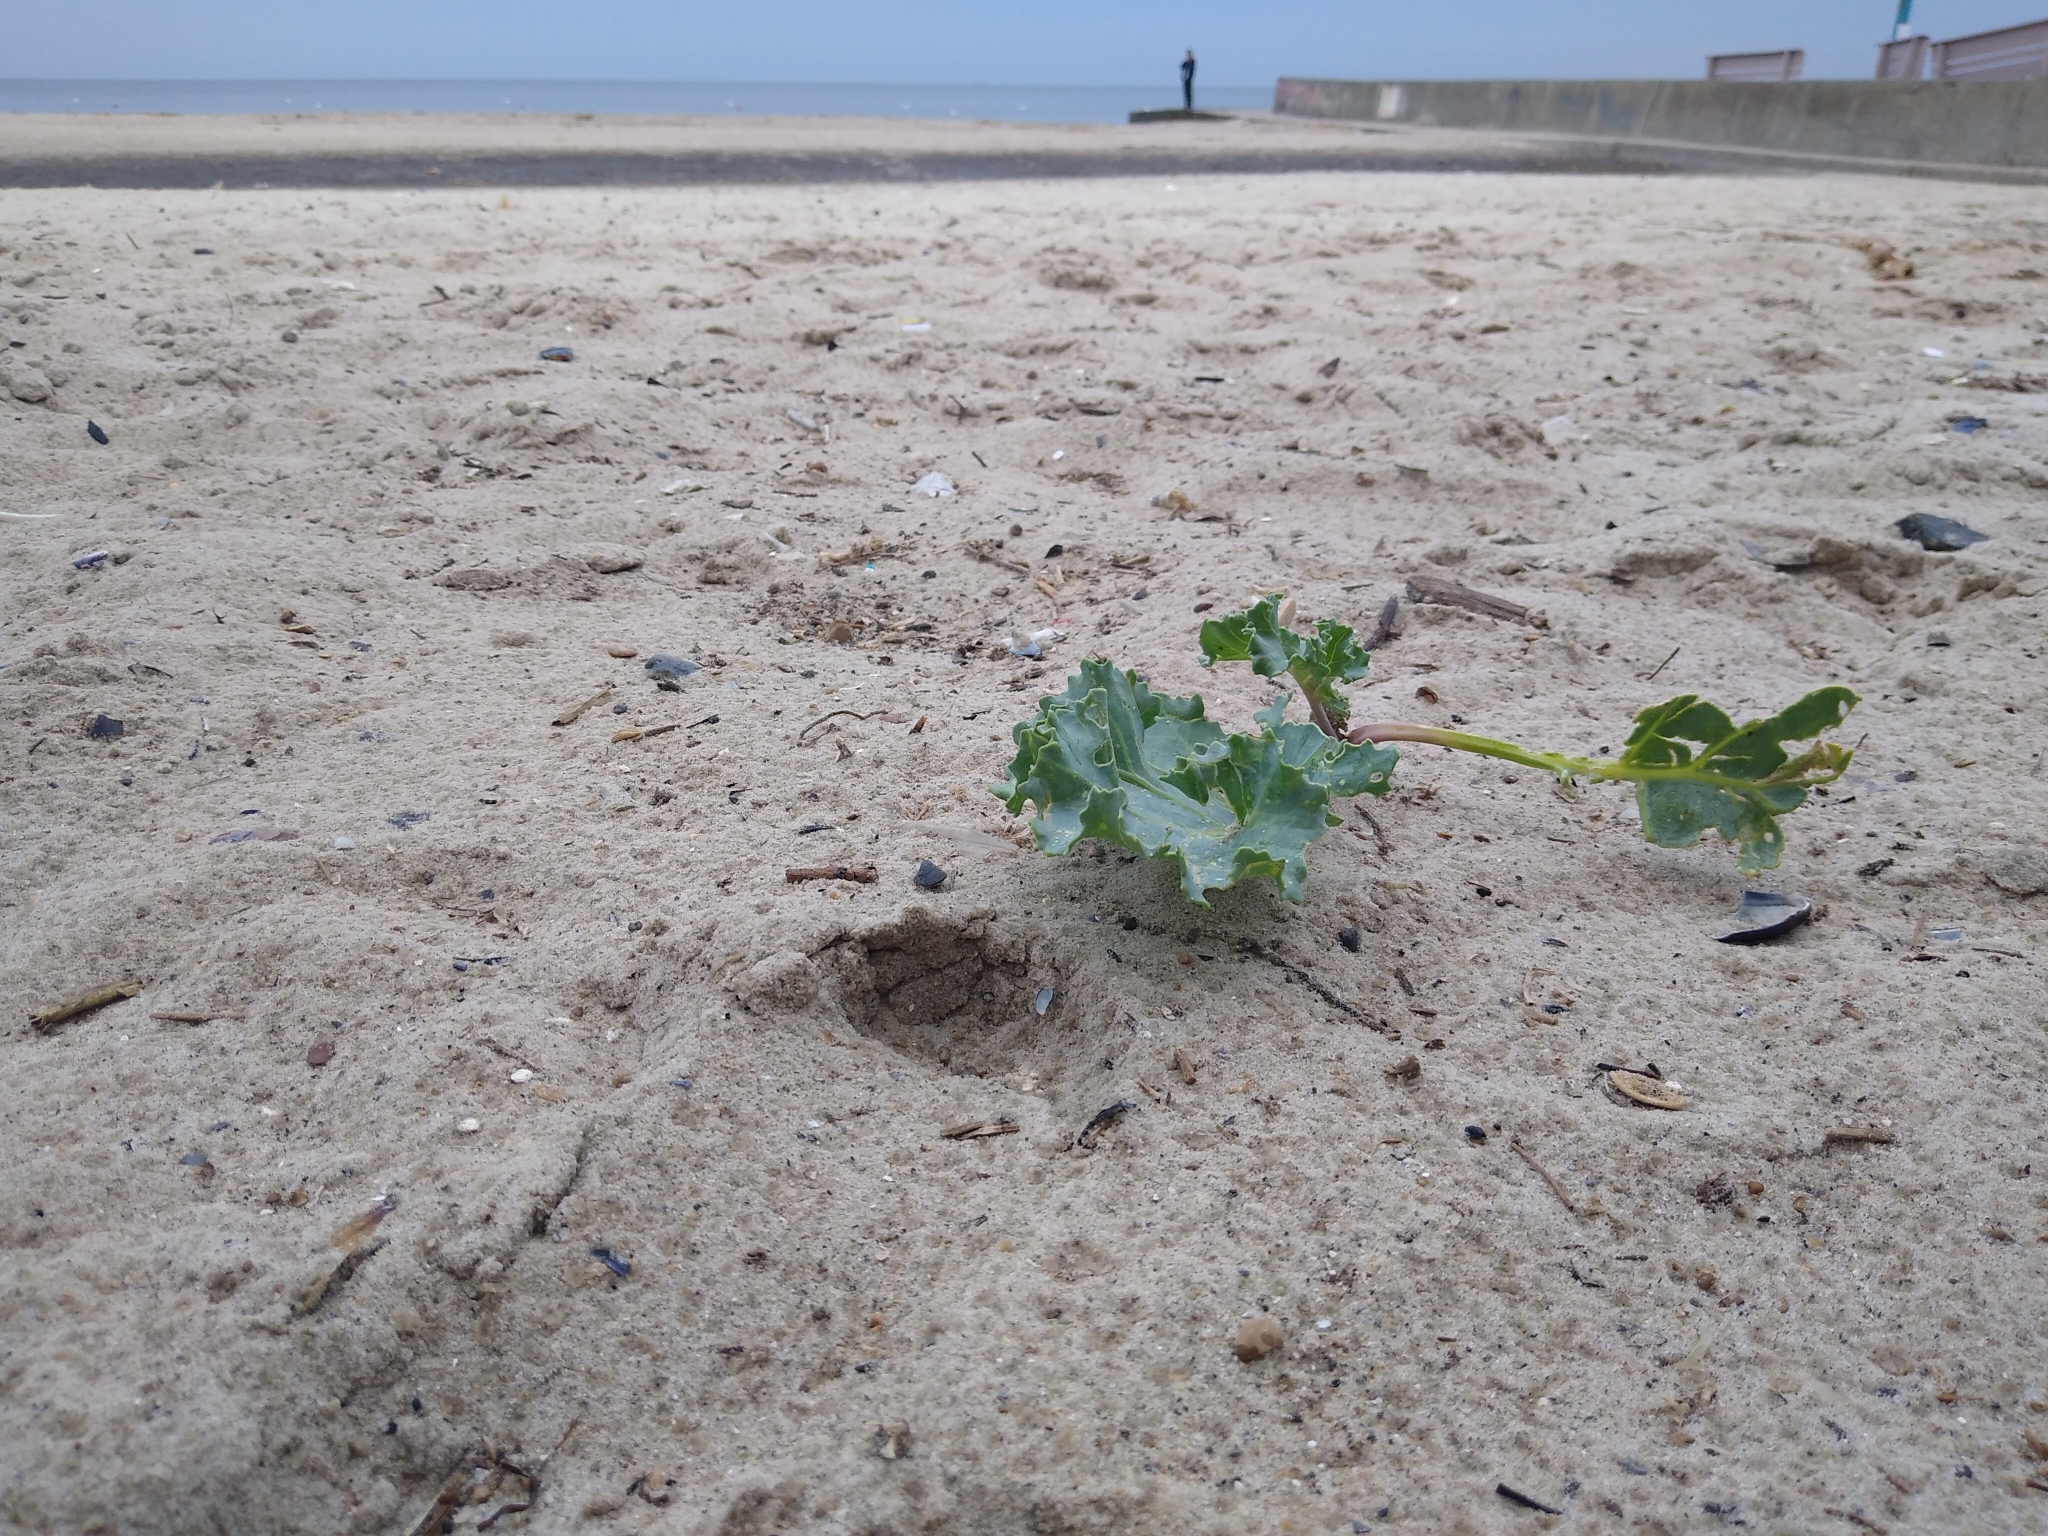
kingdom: Plantae
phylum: Tracheophyta
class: Magnoliopsida
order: Brassicales
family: Brassicaceae
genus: Crambe
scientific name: Crambe maritima
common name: Sea-kale
